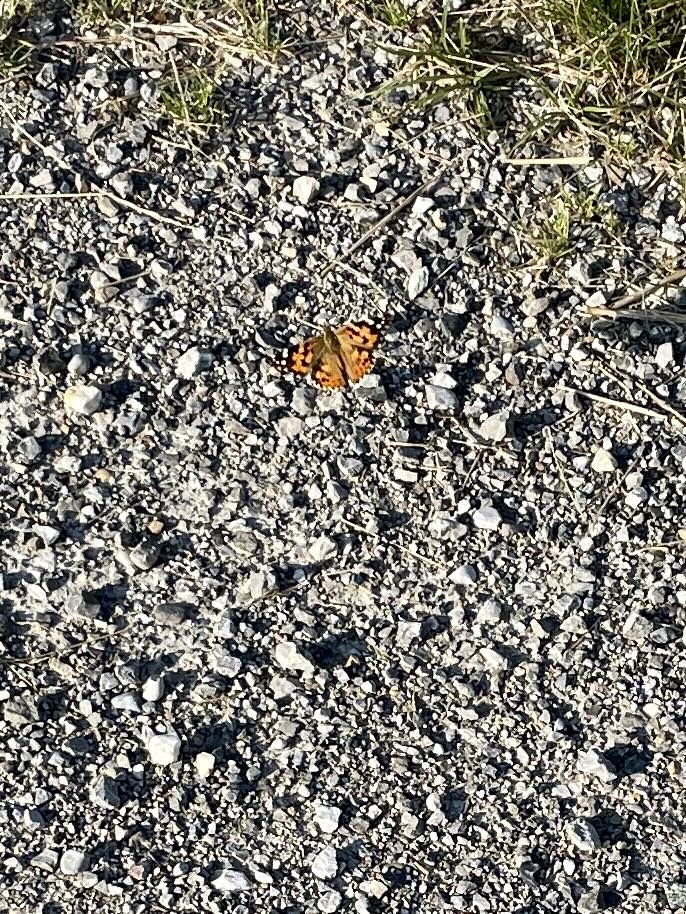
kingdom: Animalia
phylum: Arthropoda
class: Insecta
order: Lepidoptera
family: Nymphalidae
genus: Vanessa
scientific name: Vanessa cardui
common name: Painted lady
